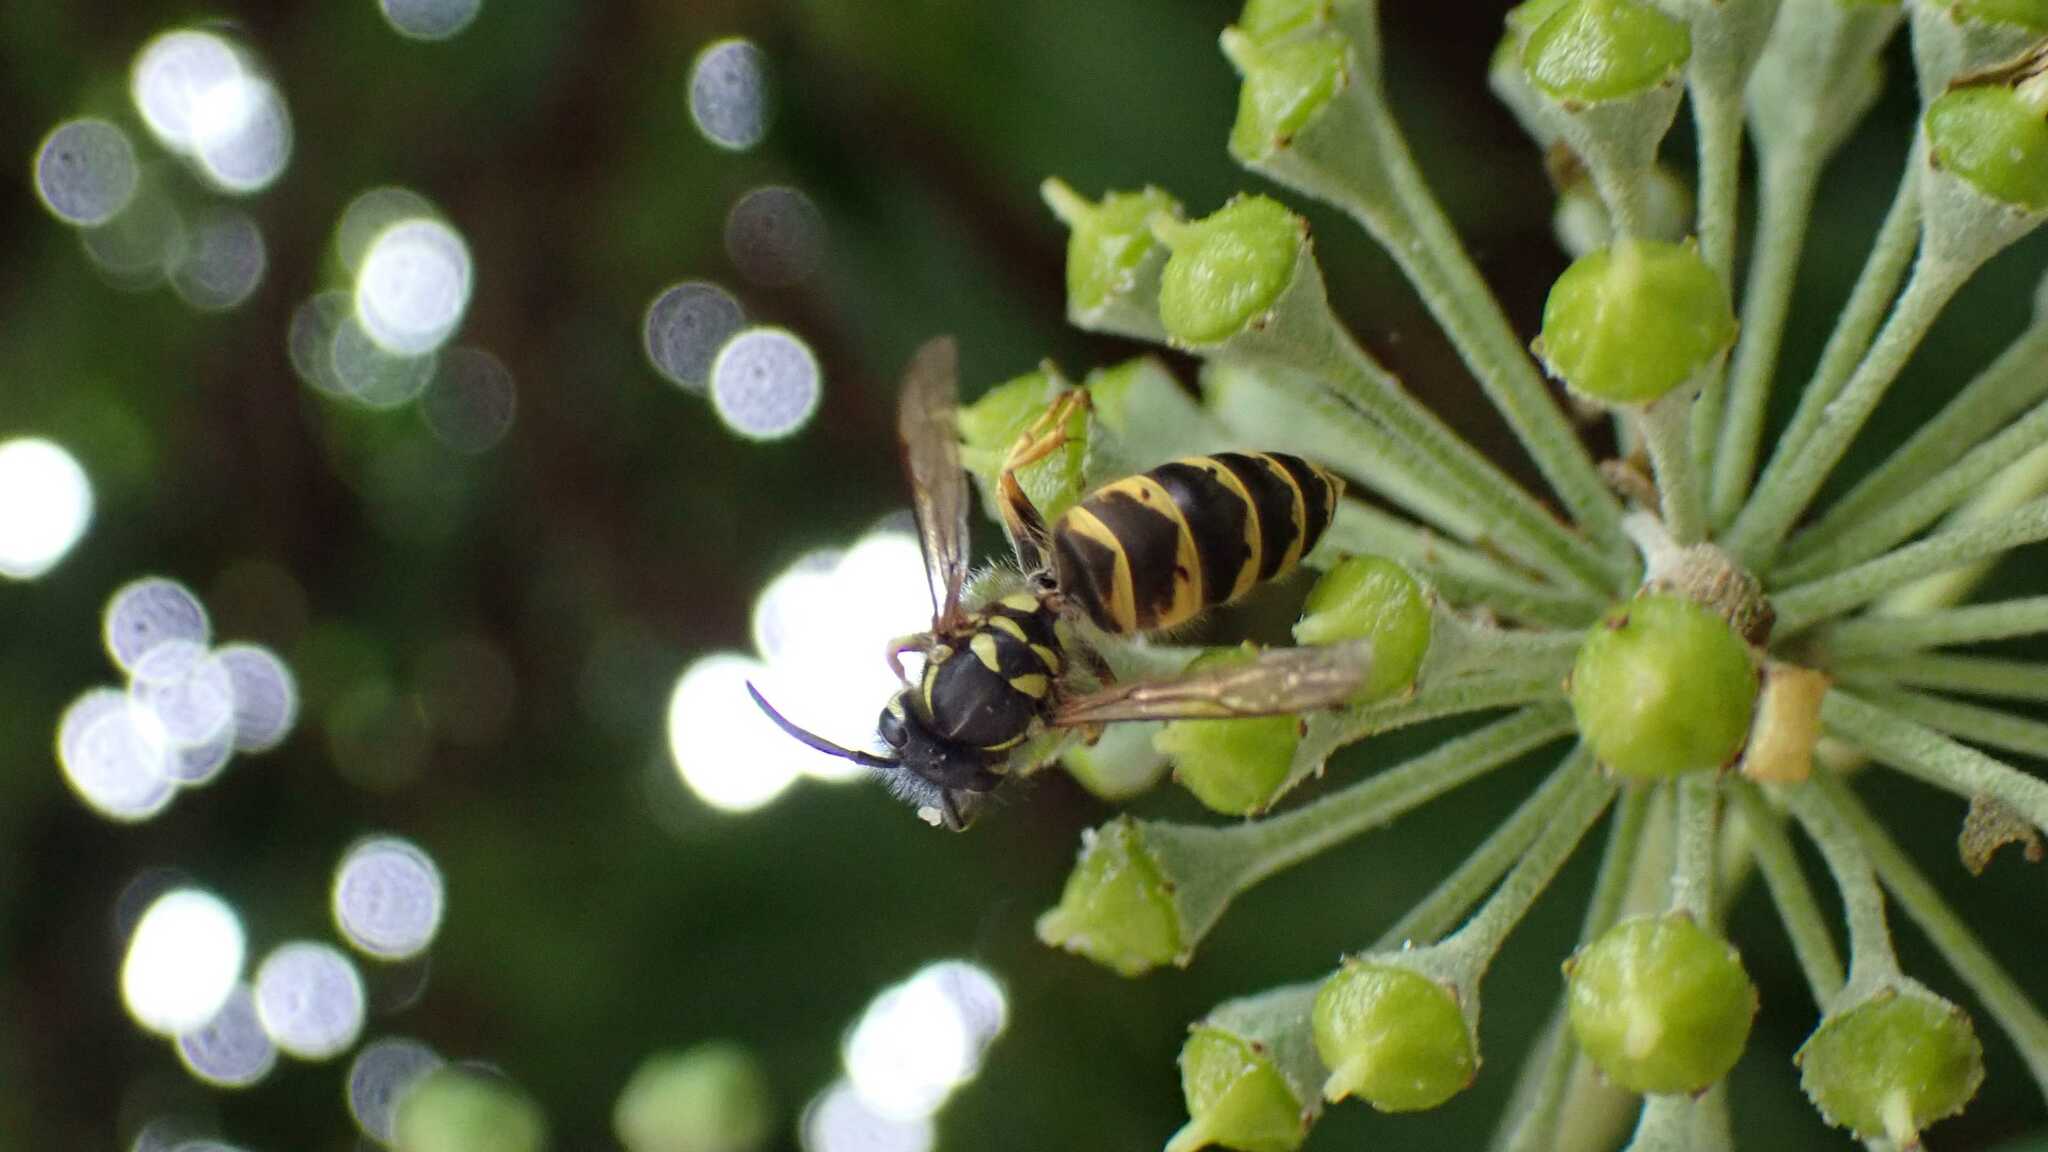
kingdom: Animalia
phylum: Arthropoda
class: Insecta
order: Hymenoptera
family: Vespidae
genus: Vespula
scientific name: Vespula vulgaris
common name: Common wasp
